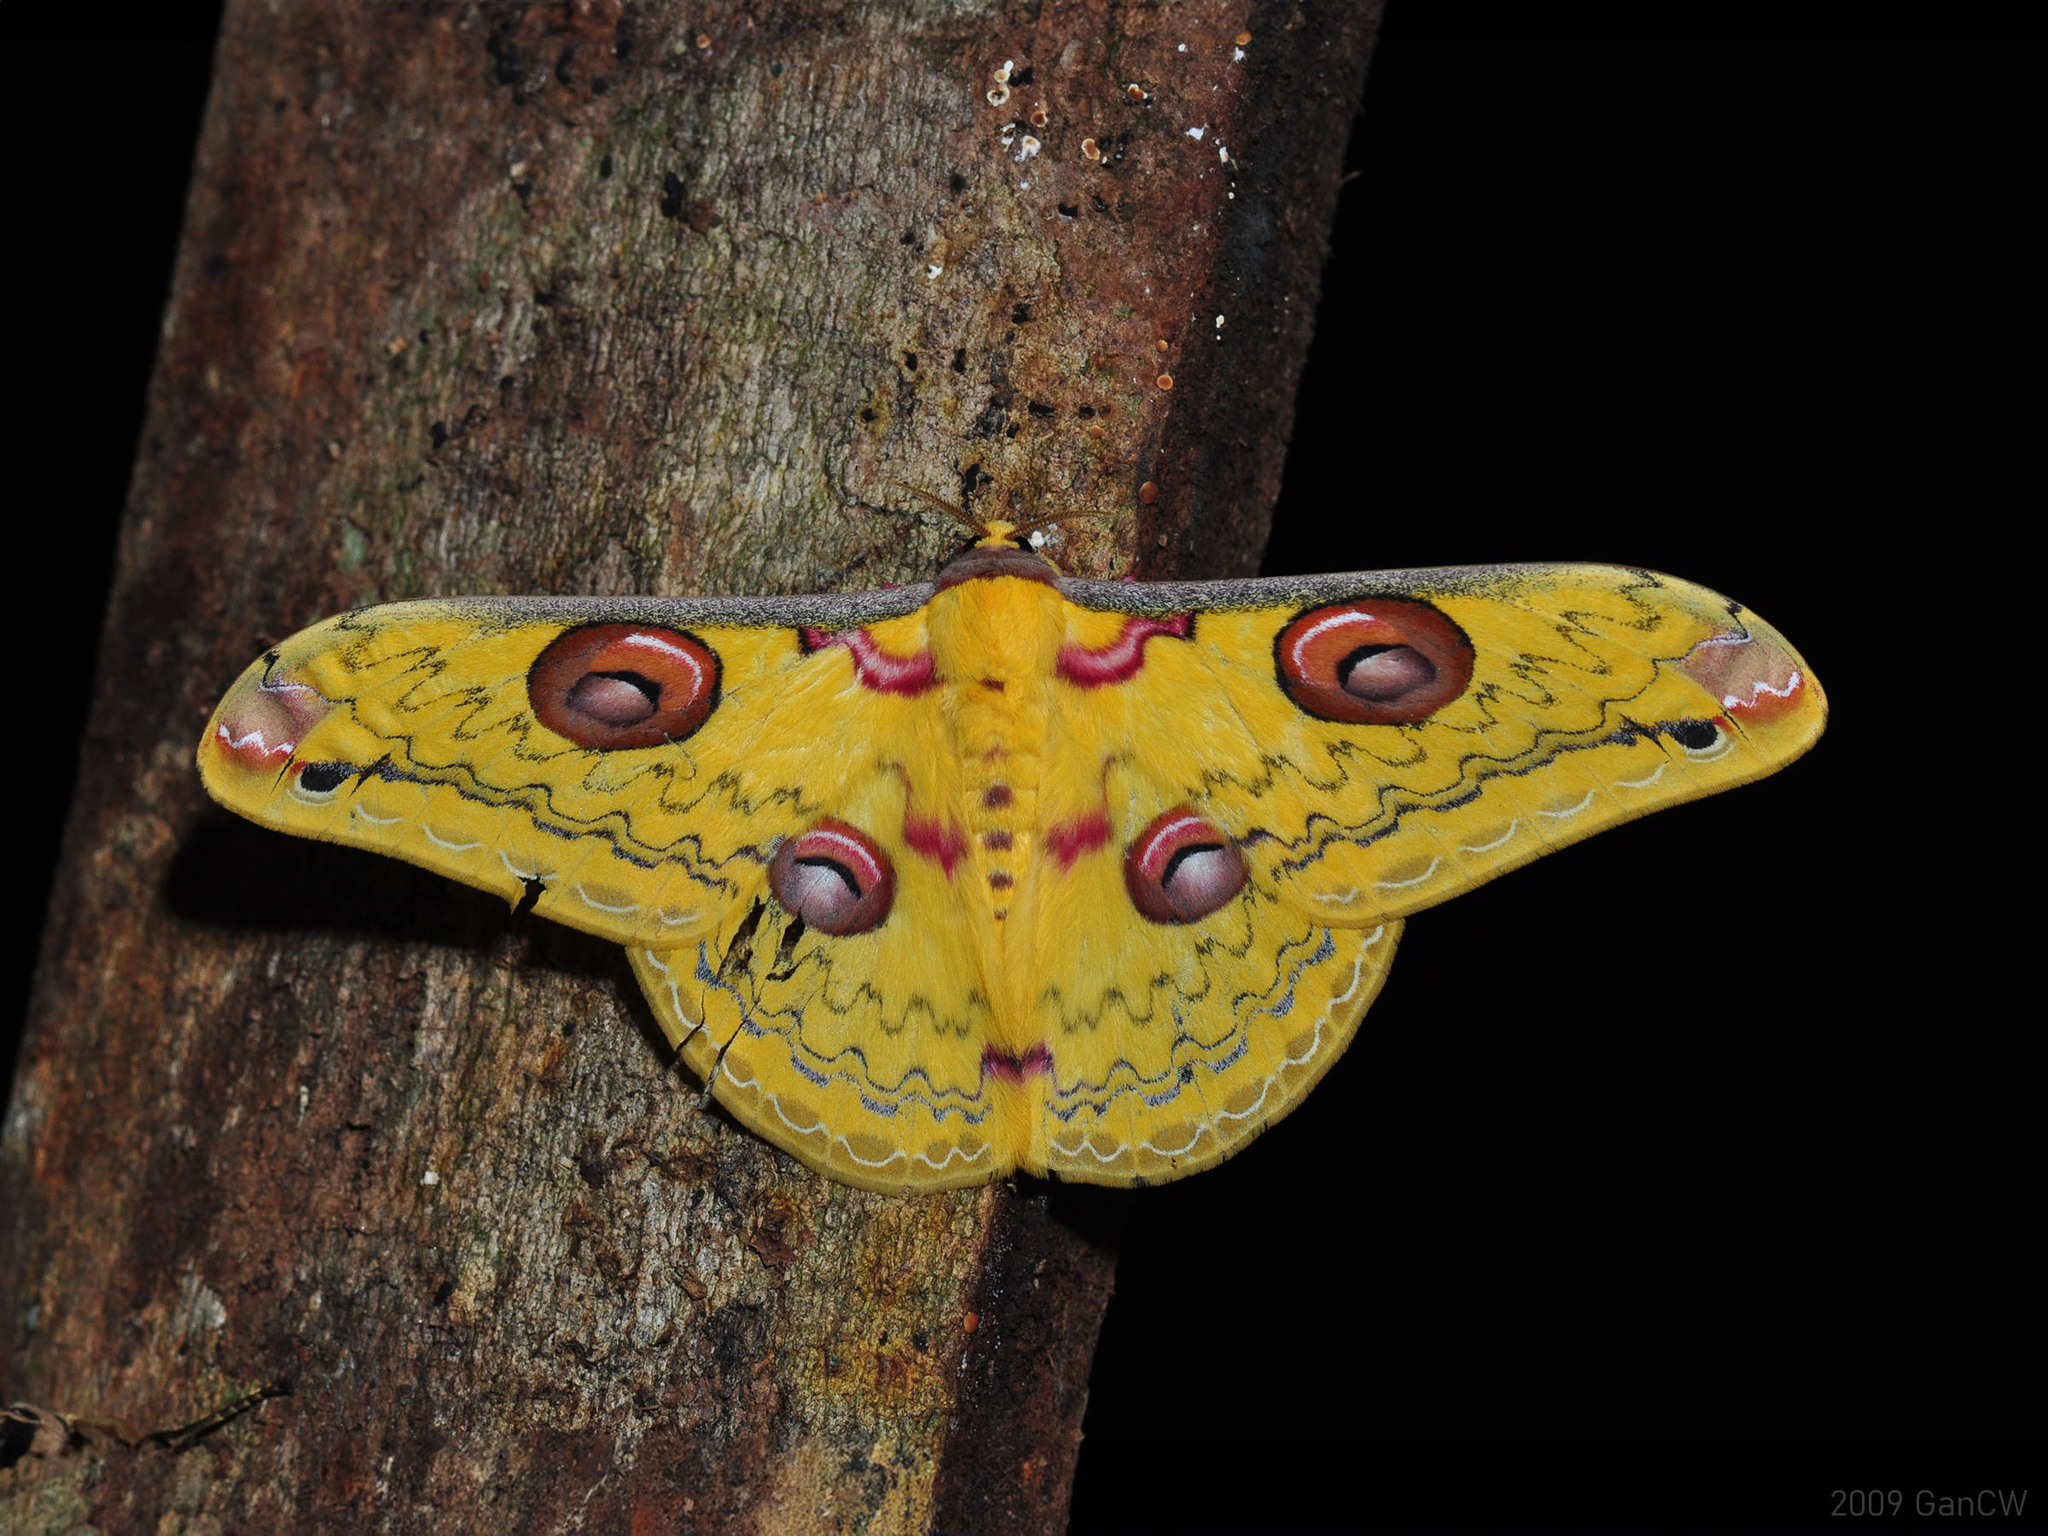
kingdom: Animalia
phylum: Arthropoda
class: Insecta
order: Lepidoptera
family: Saturniidae
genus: Loepa
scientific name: Loepa siamensis
